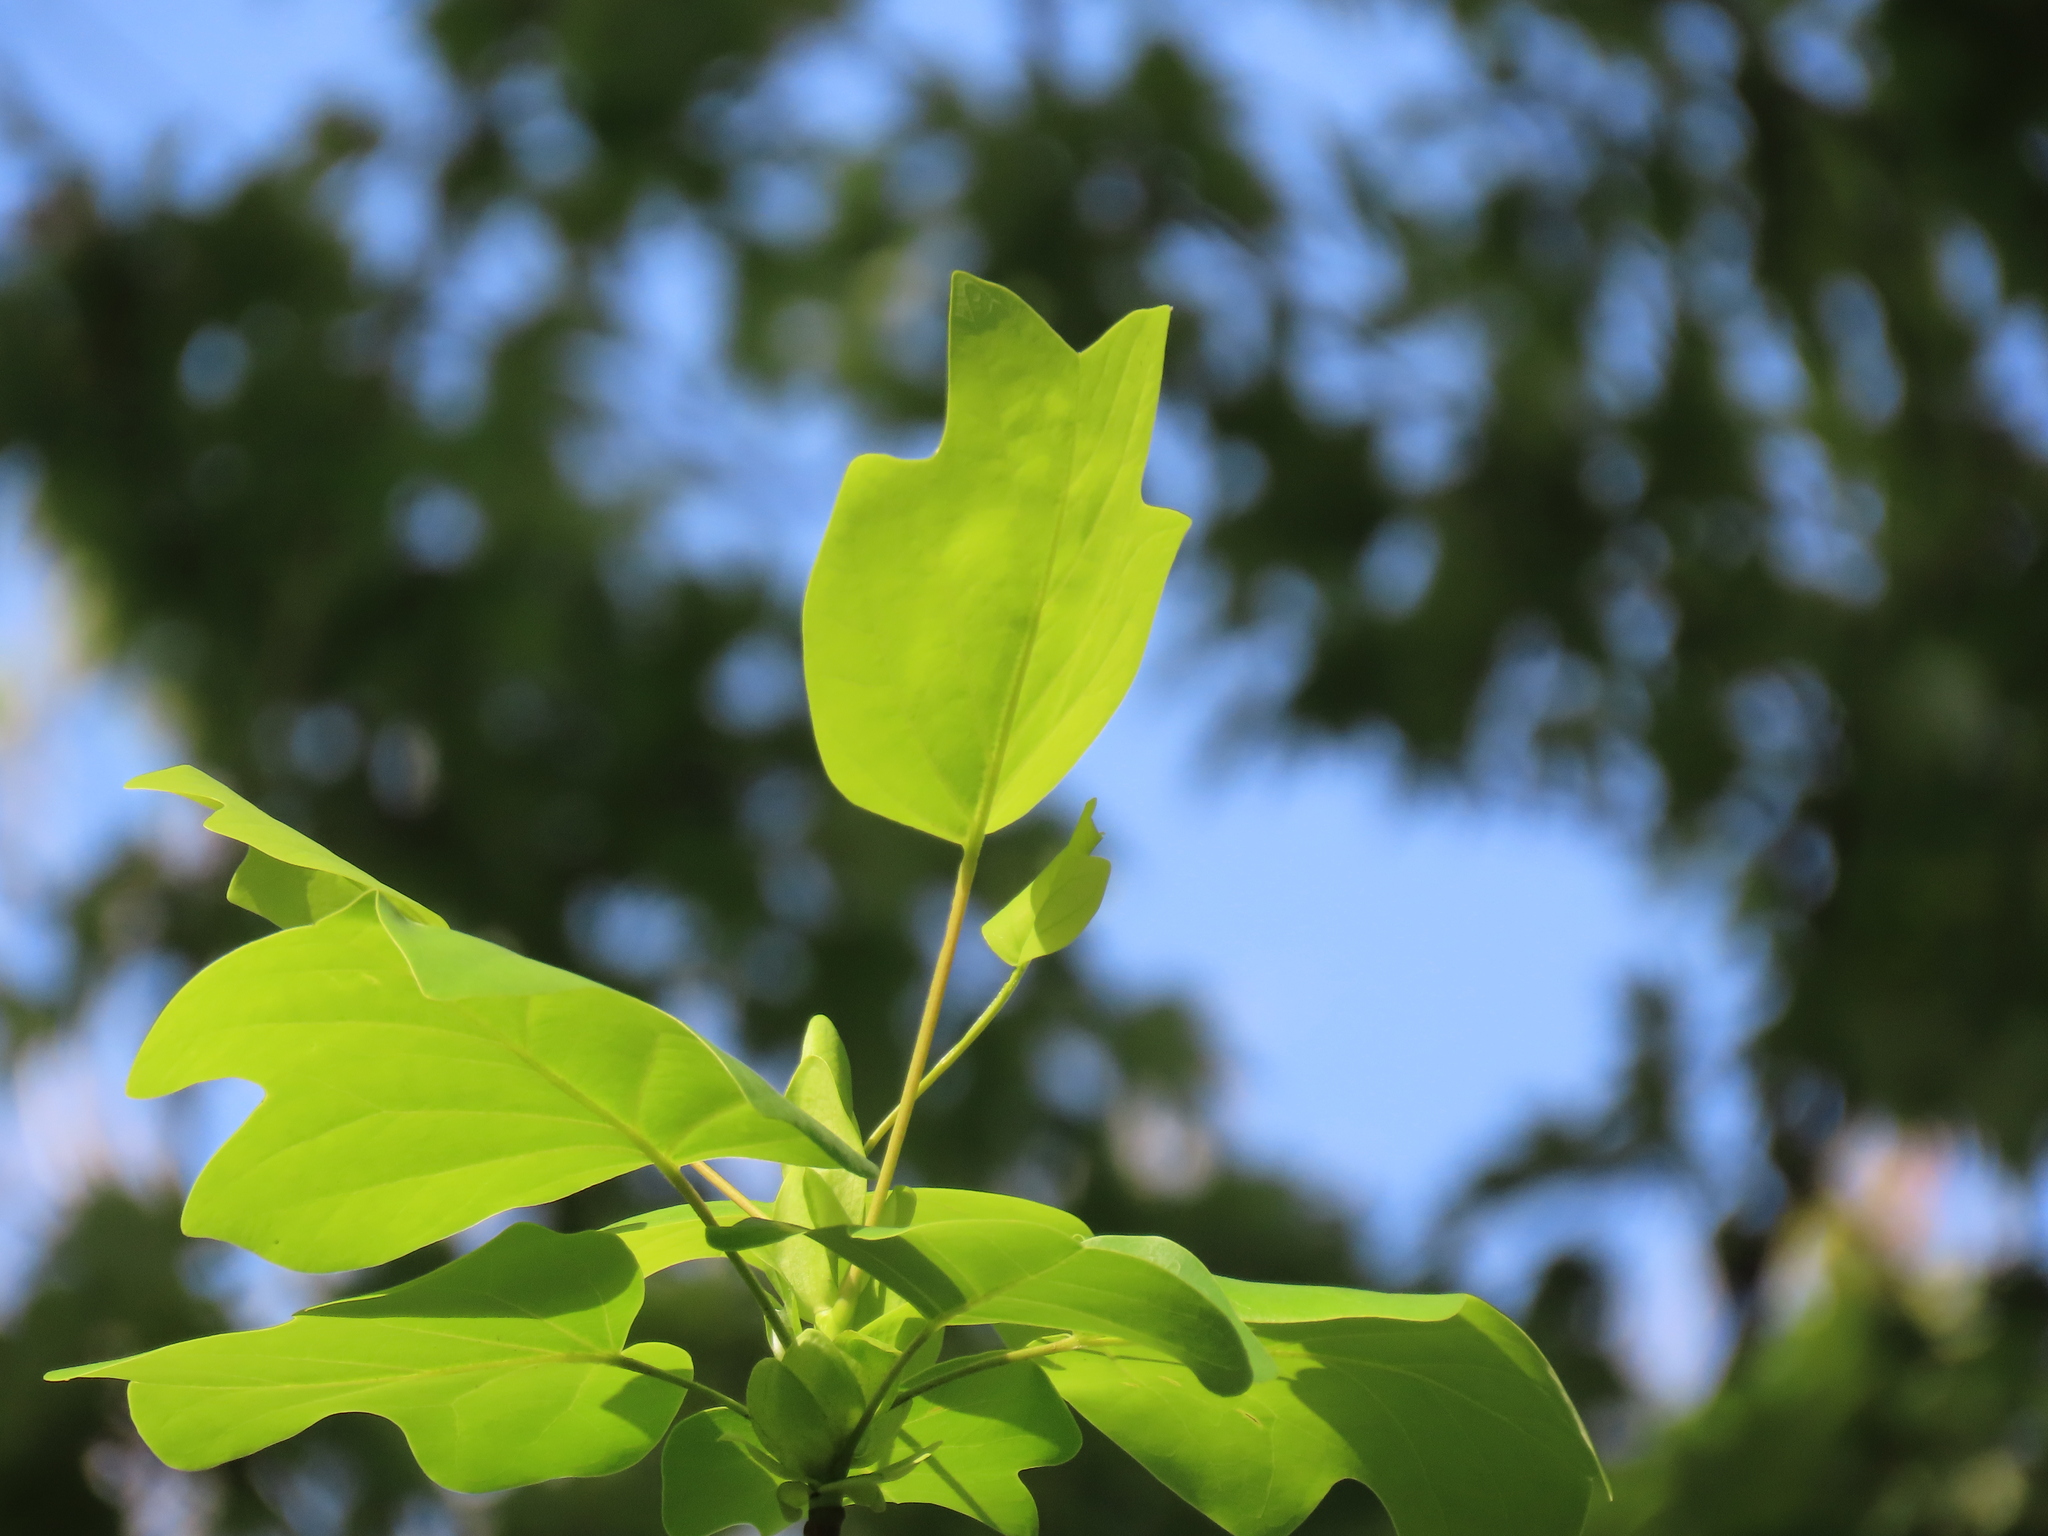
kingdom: Plantae
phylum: Tracheophyta
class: Magnoliopsida
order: Magnoliales
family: Magnoliaceae
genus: Liriodendron
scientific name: Liriodendron tulipifera
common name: Tulip tree
